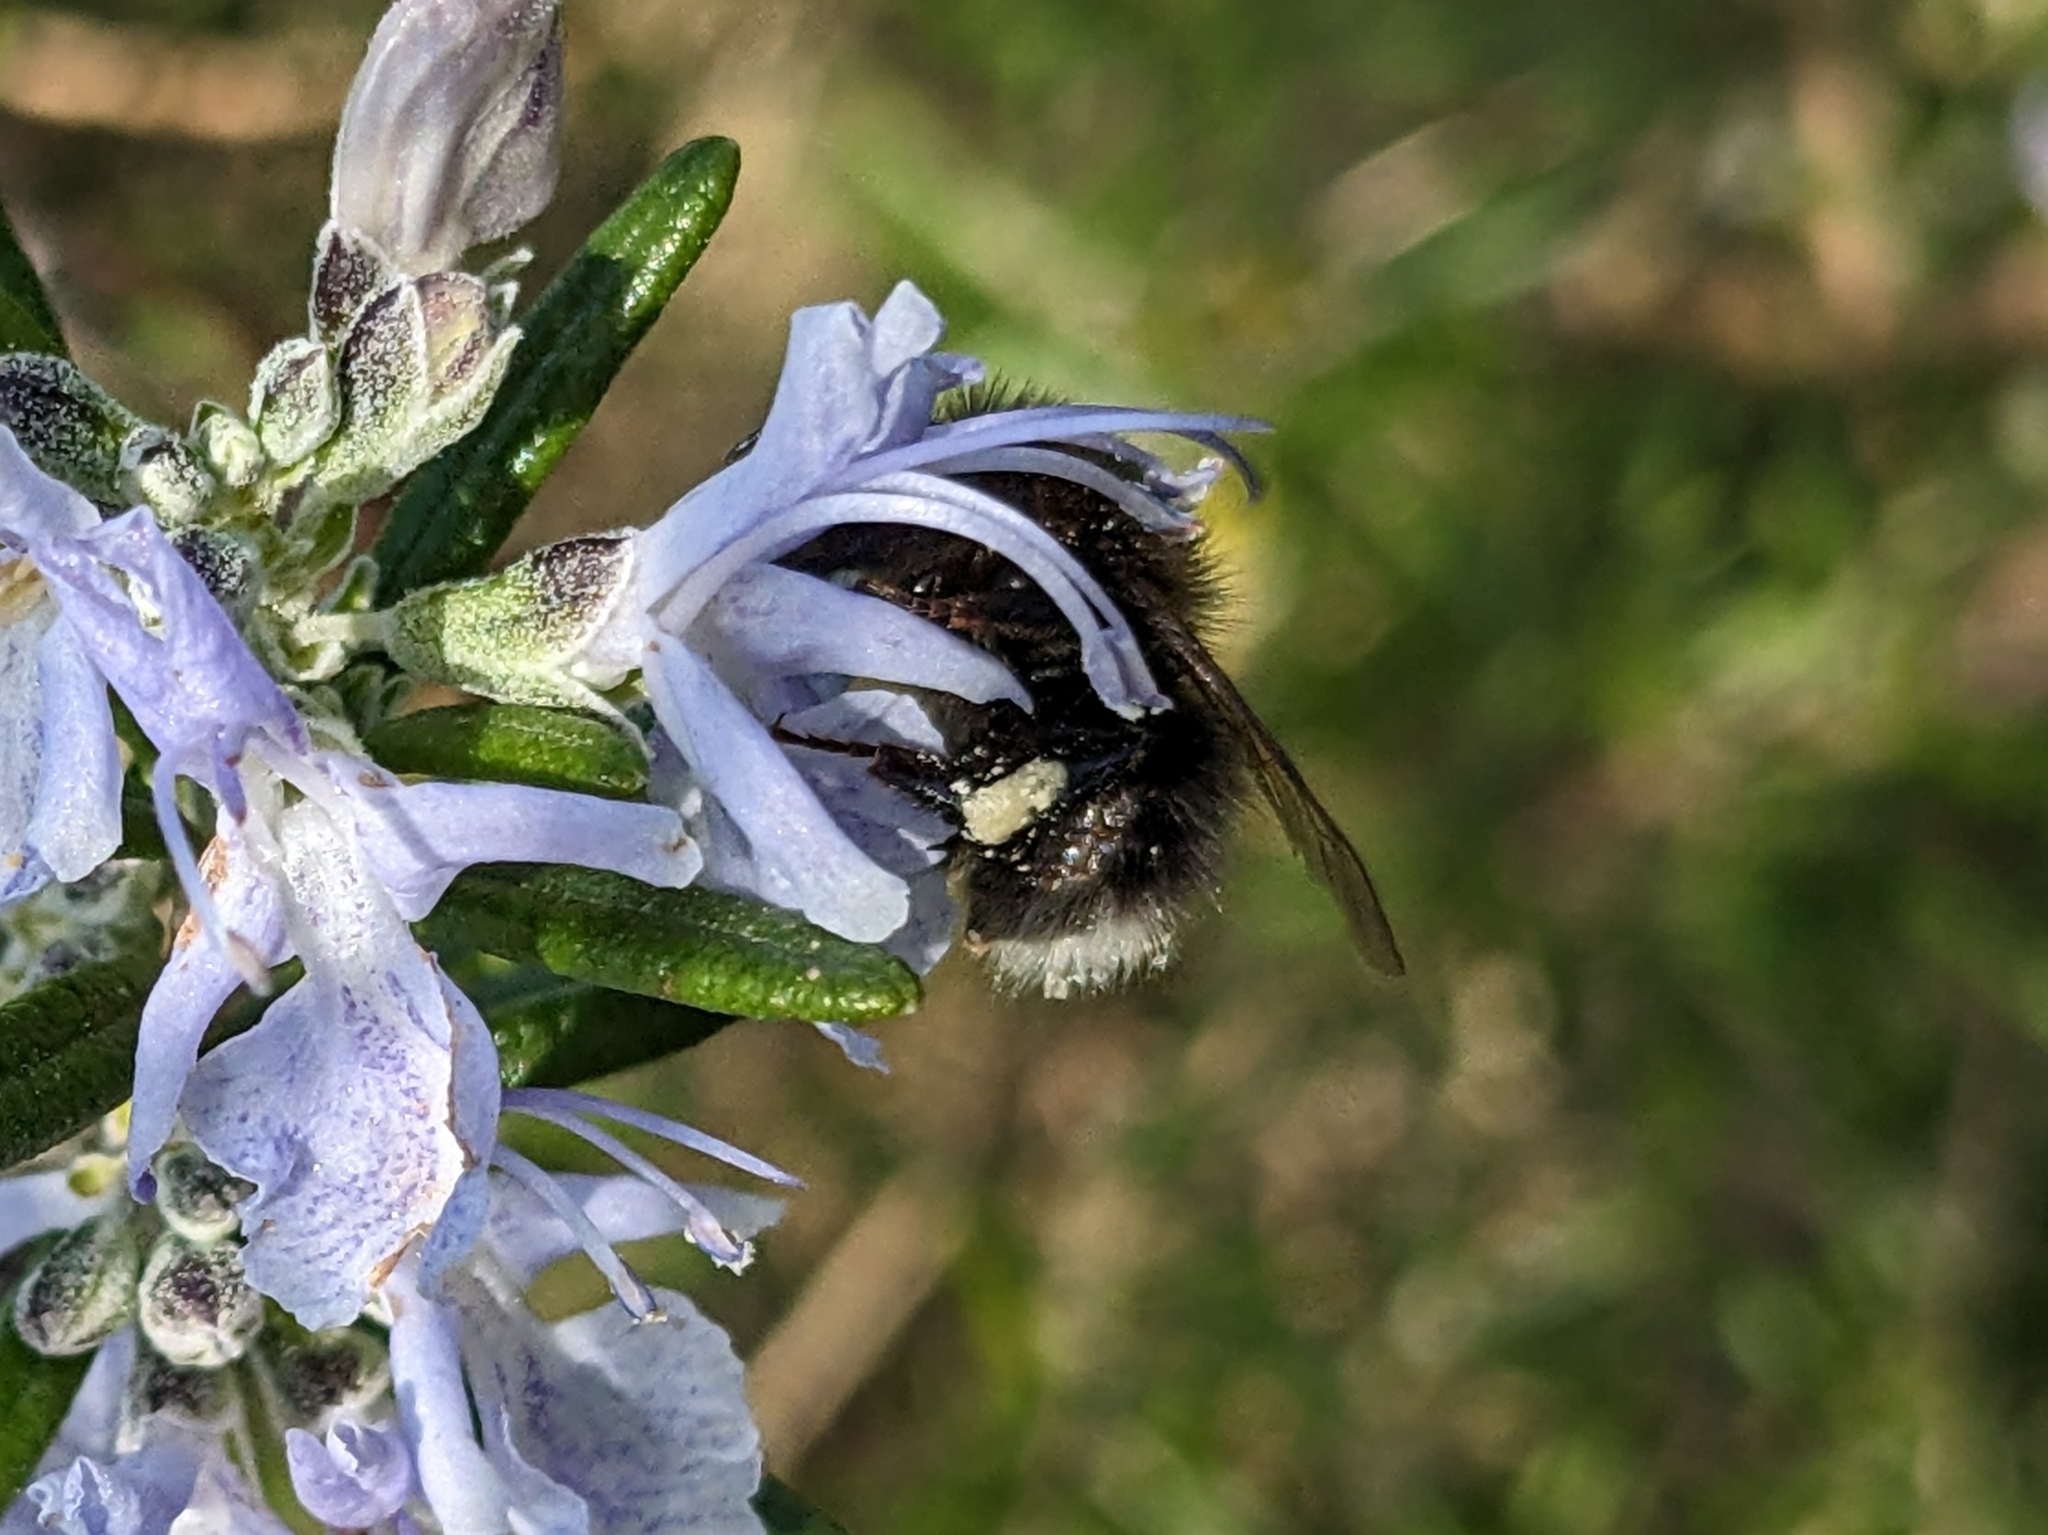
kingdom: Animalia
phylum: Arthropoda
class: Insecta
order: Hymenoptera
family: Apidae
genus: Bombus
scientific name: Bombus hypnorum
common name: New garden bumblebee
